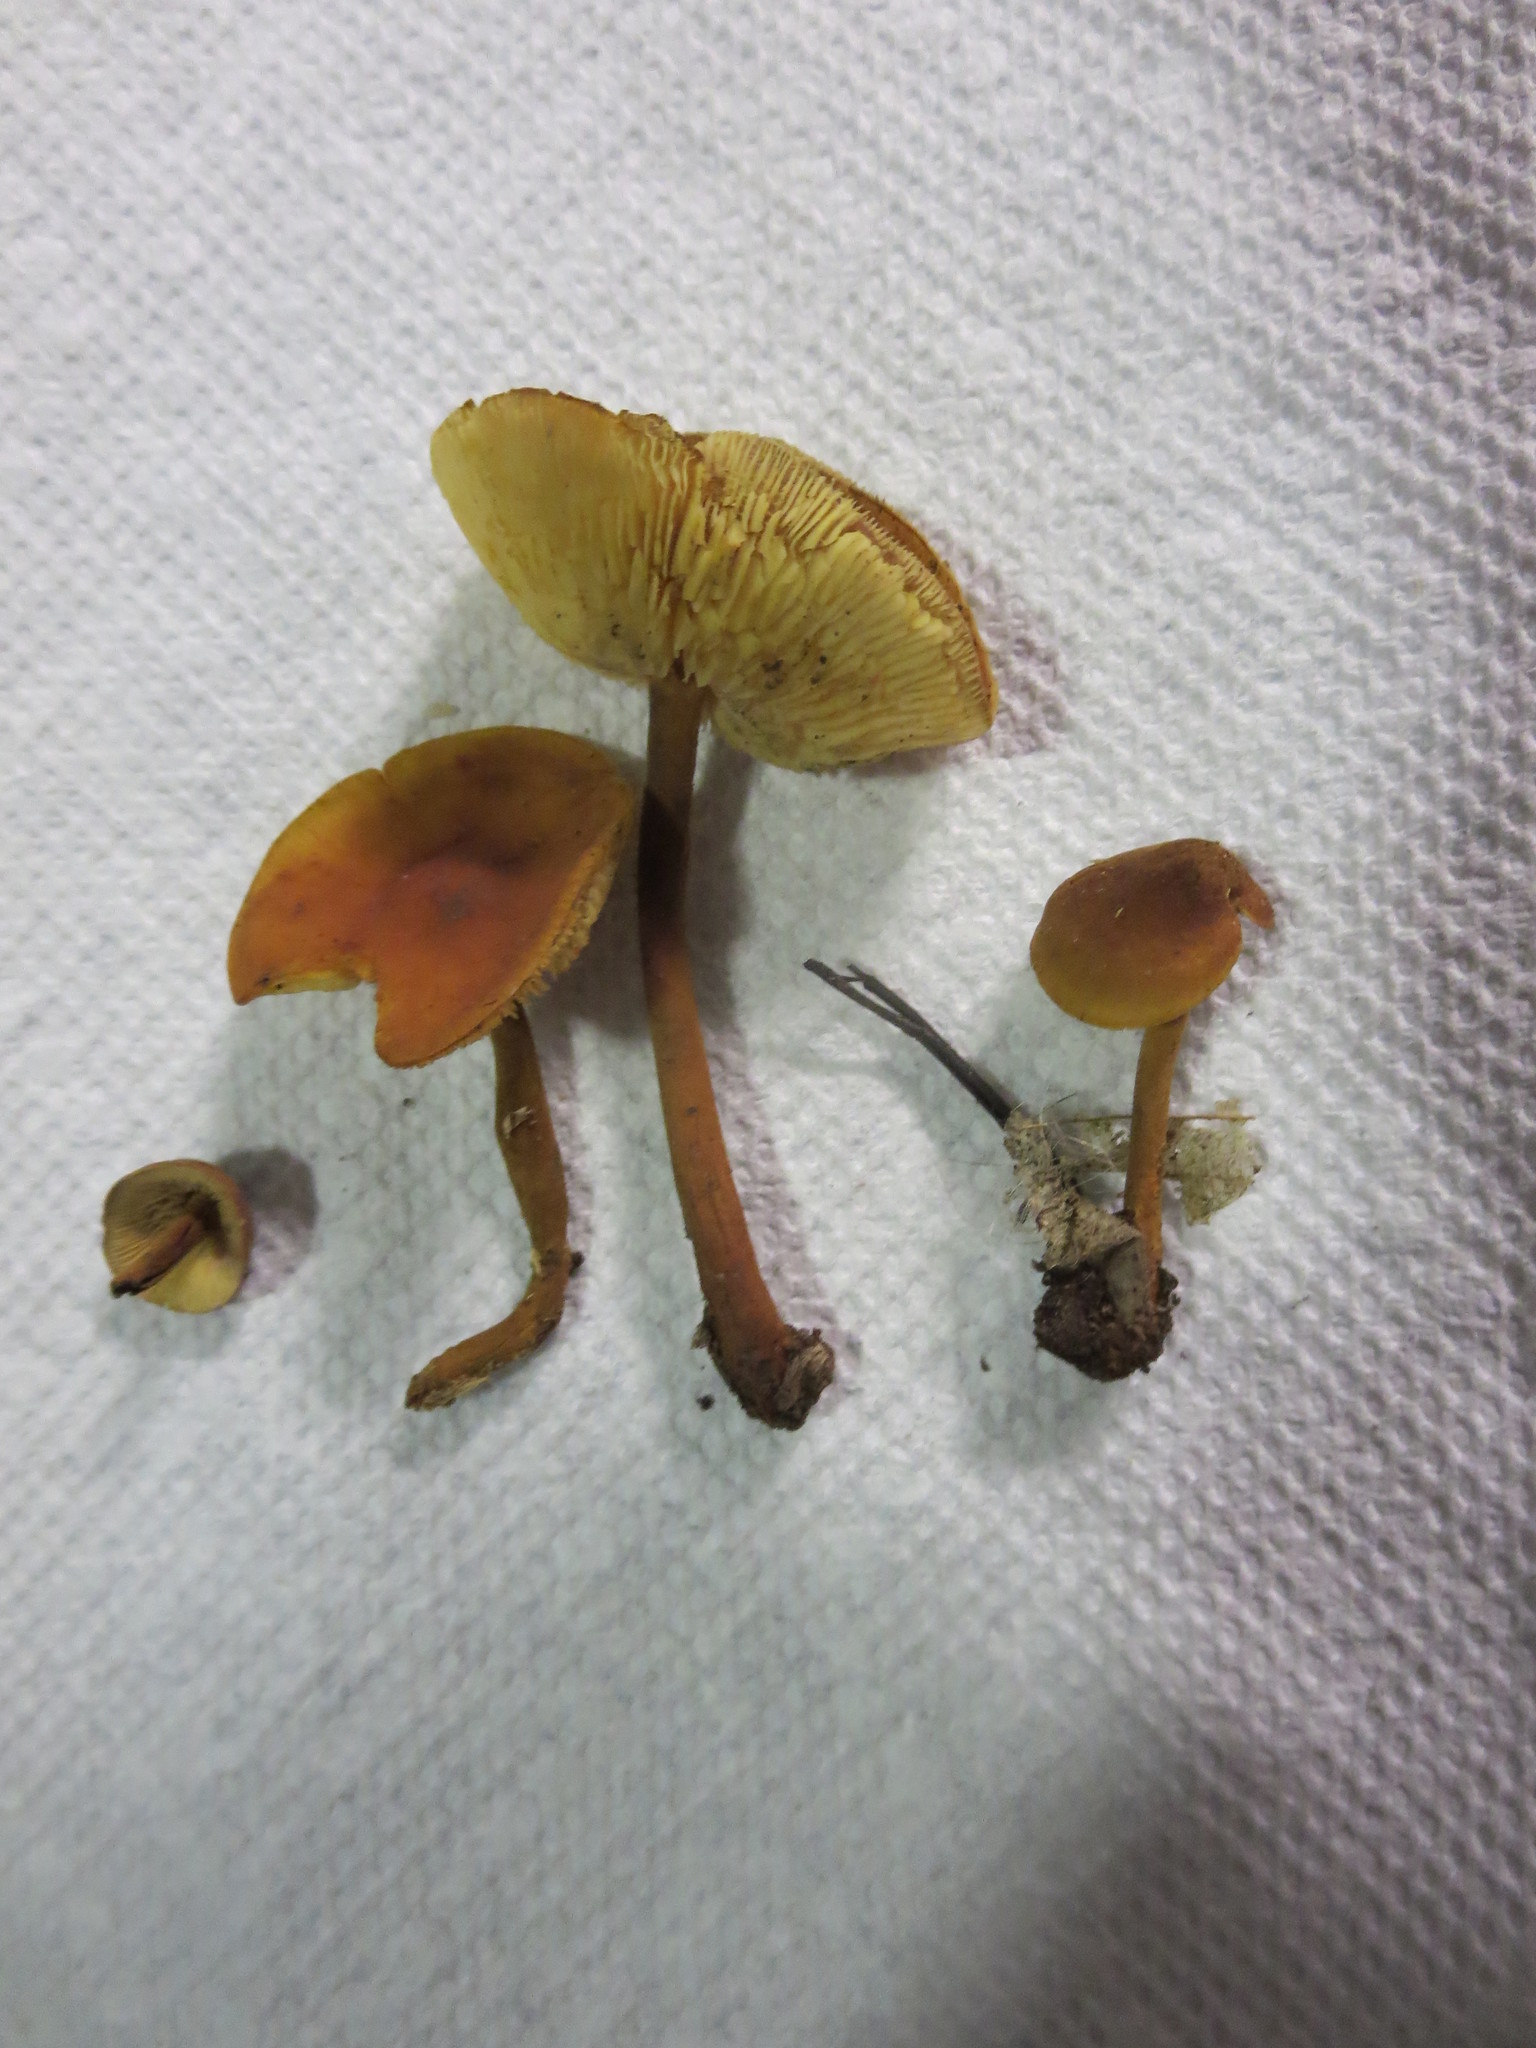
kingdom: Fungi
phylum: Basidiomycota
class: Agaricomycetes
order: Agaricales
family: Mycenaceae
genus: Xeromphalina
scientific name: Xeromphalina tenuipes
